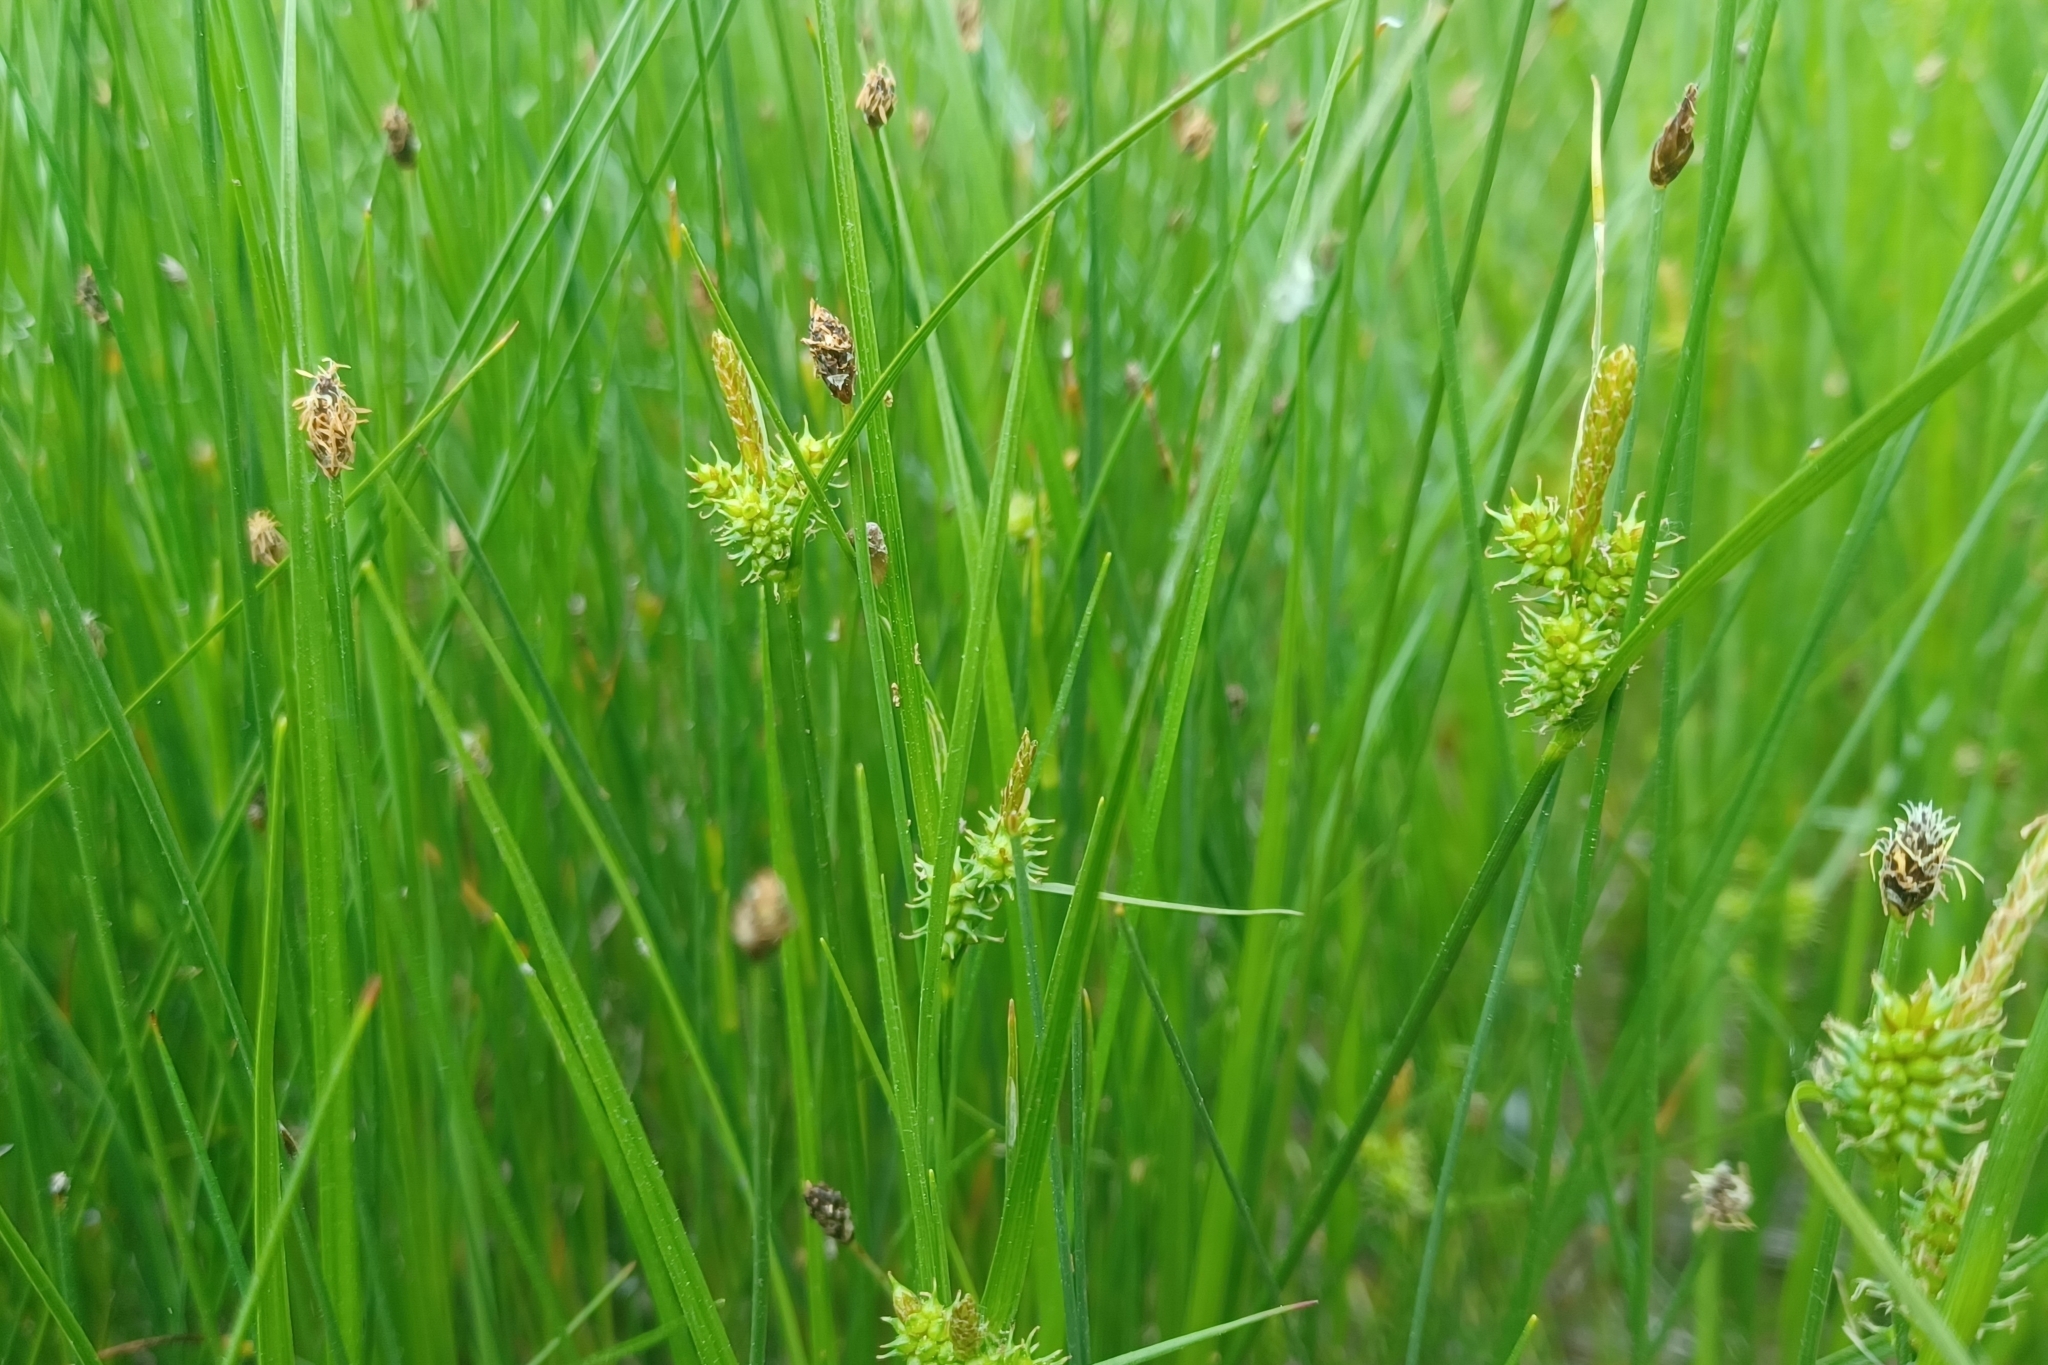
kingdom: Plantae
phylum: Tracheophyta
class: Liliopsida
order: Poales
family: Cyperaceae
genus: Carex
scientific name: Carex
